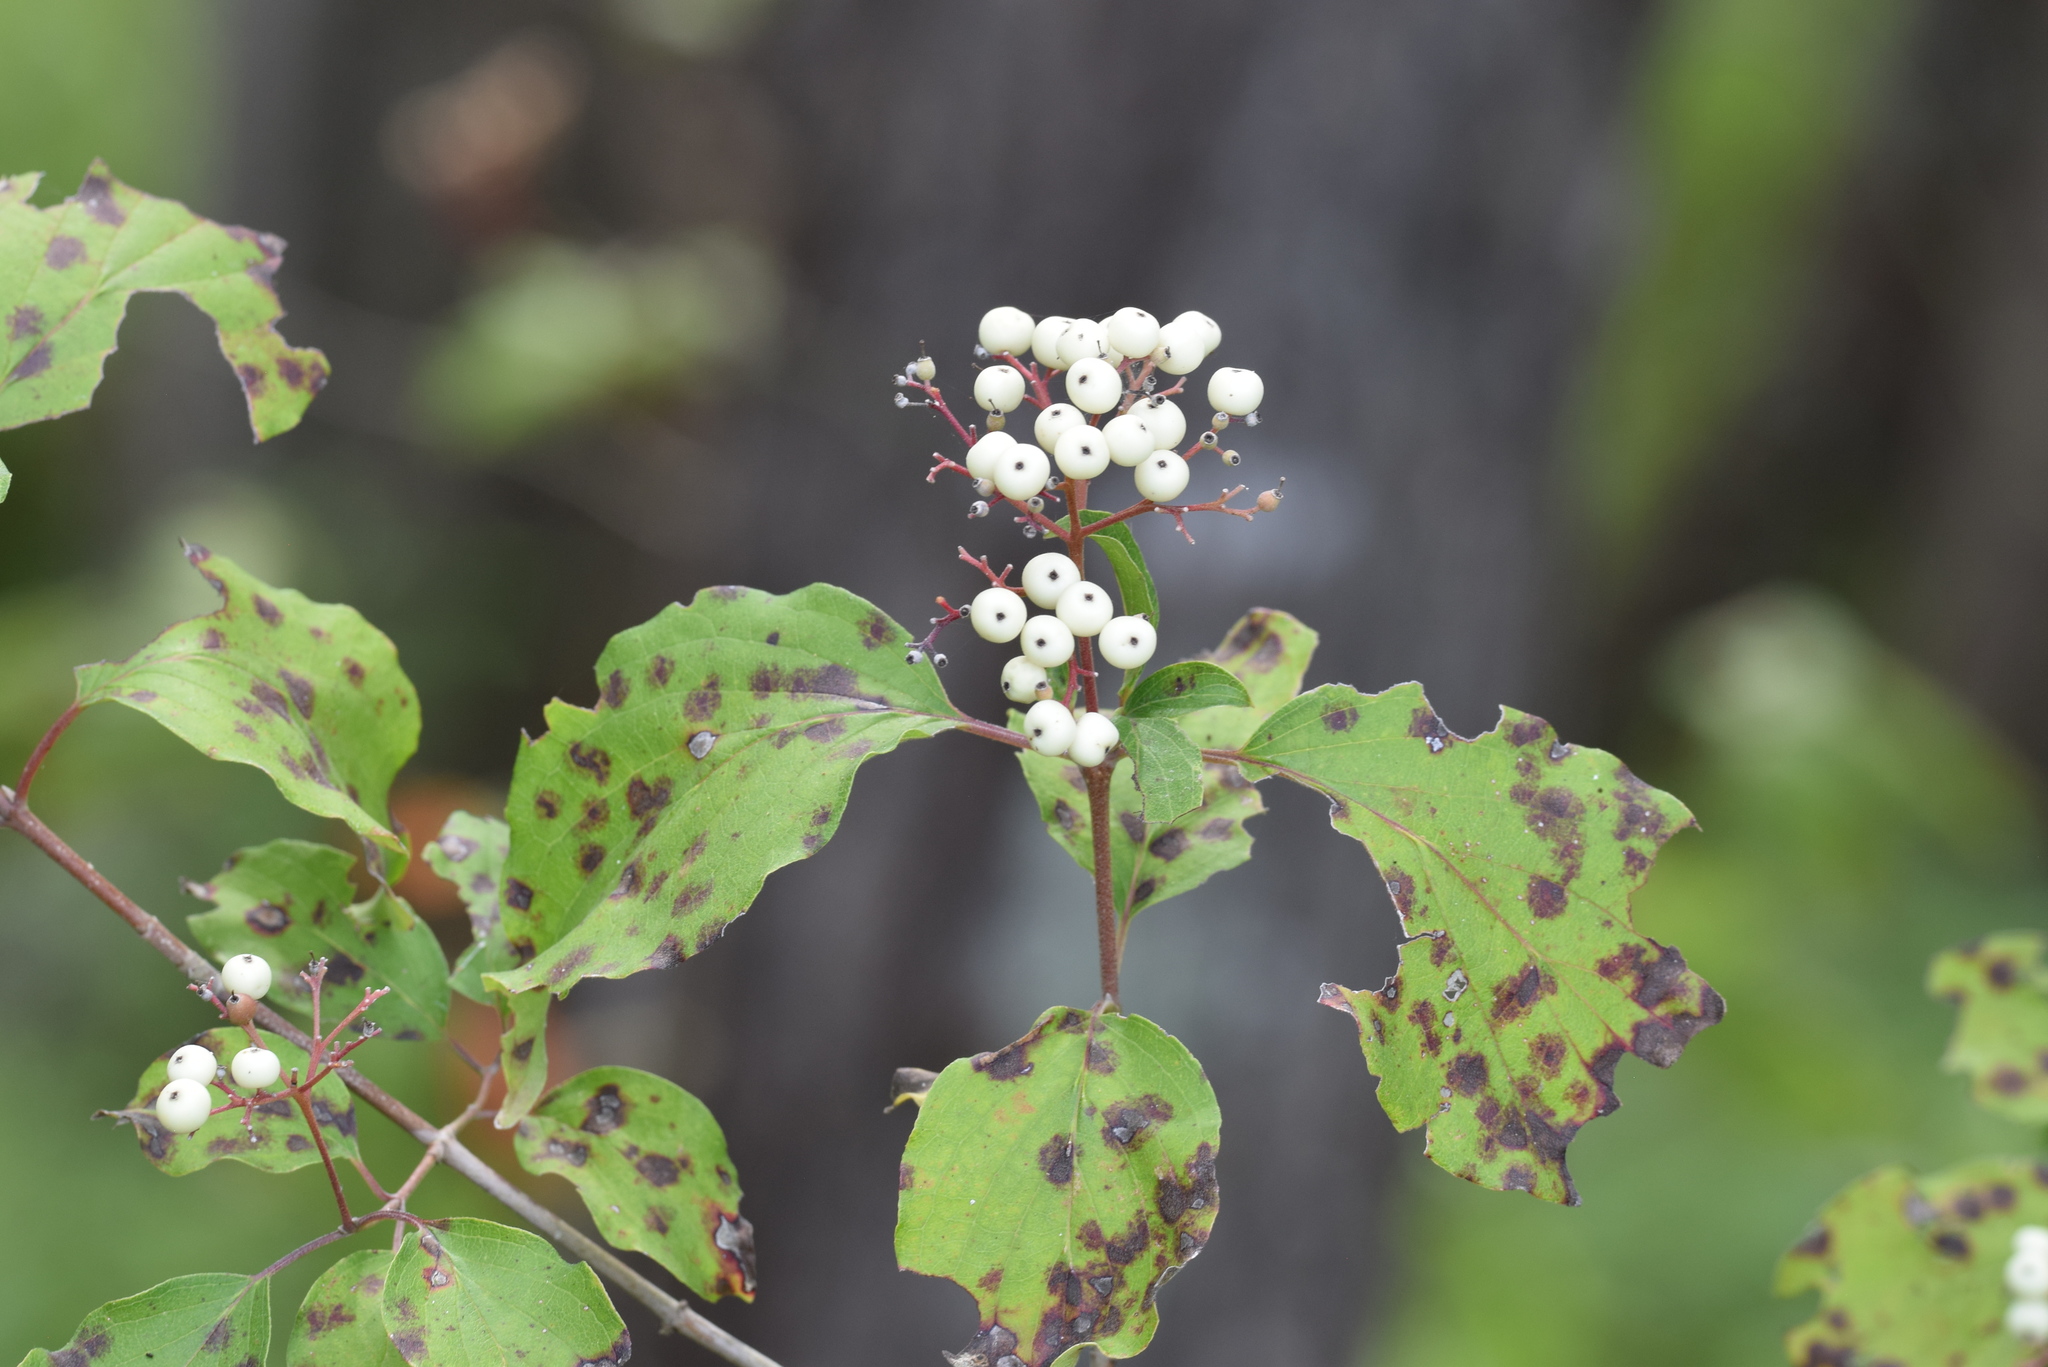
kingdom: Plantae
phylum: Tracheophyta
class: Magnoliopsida
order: Cornales
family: Cornaceae
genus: Cornus
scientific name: Cornus drummondii
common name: Rough-leaf dogwood
